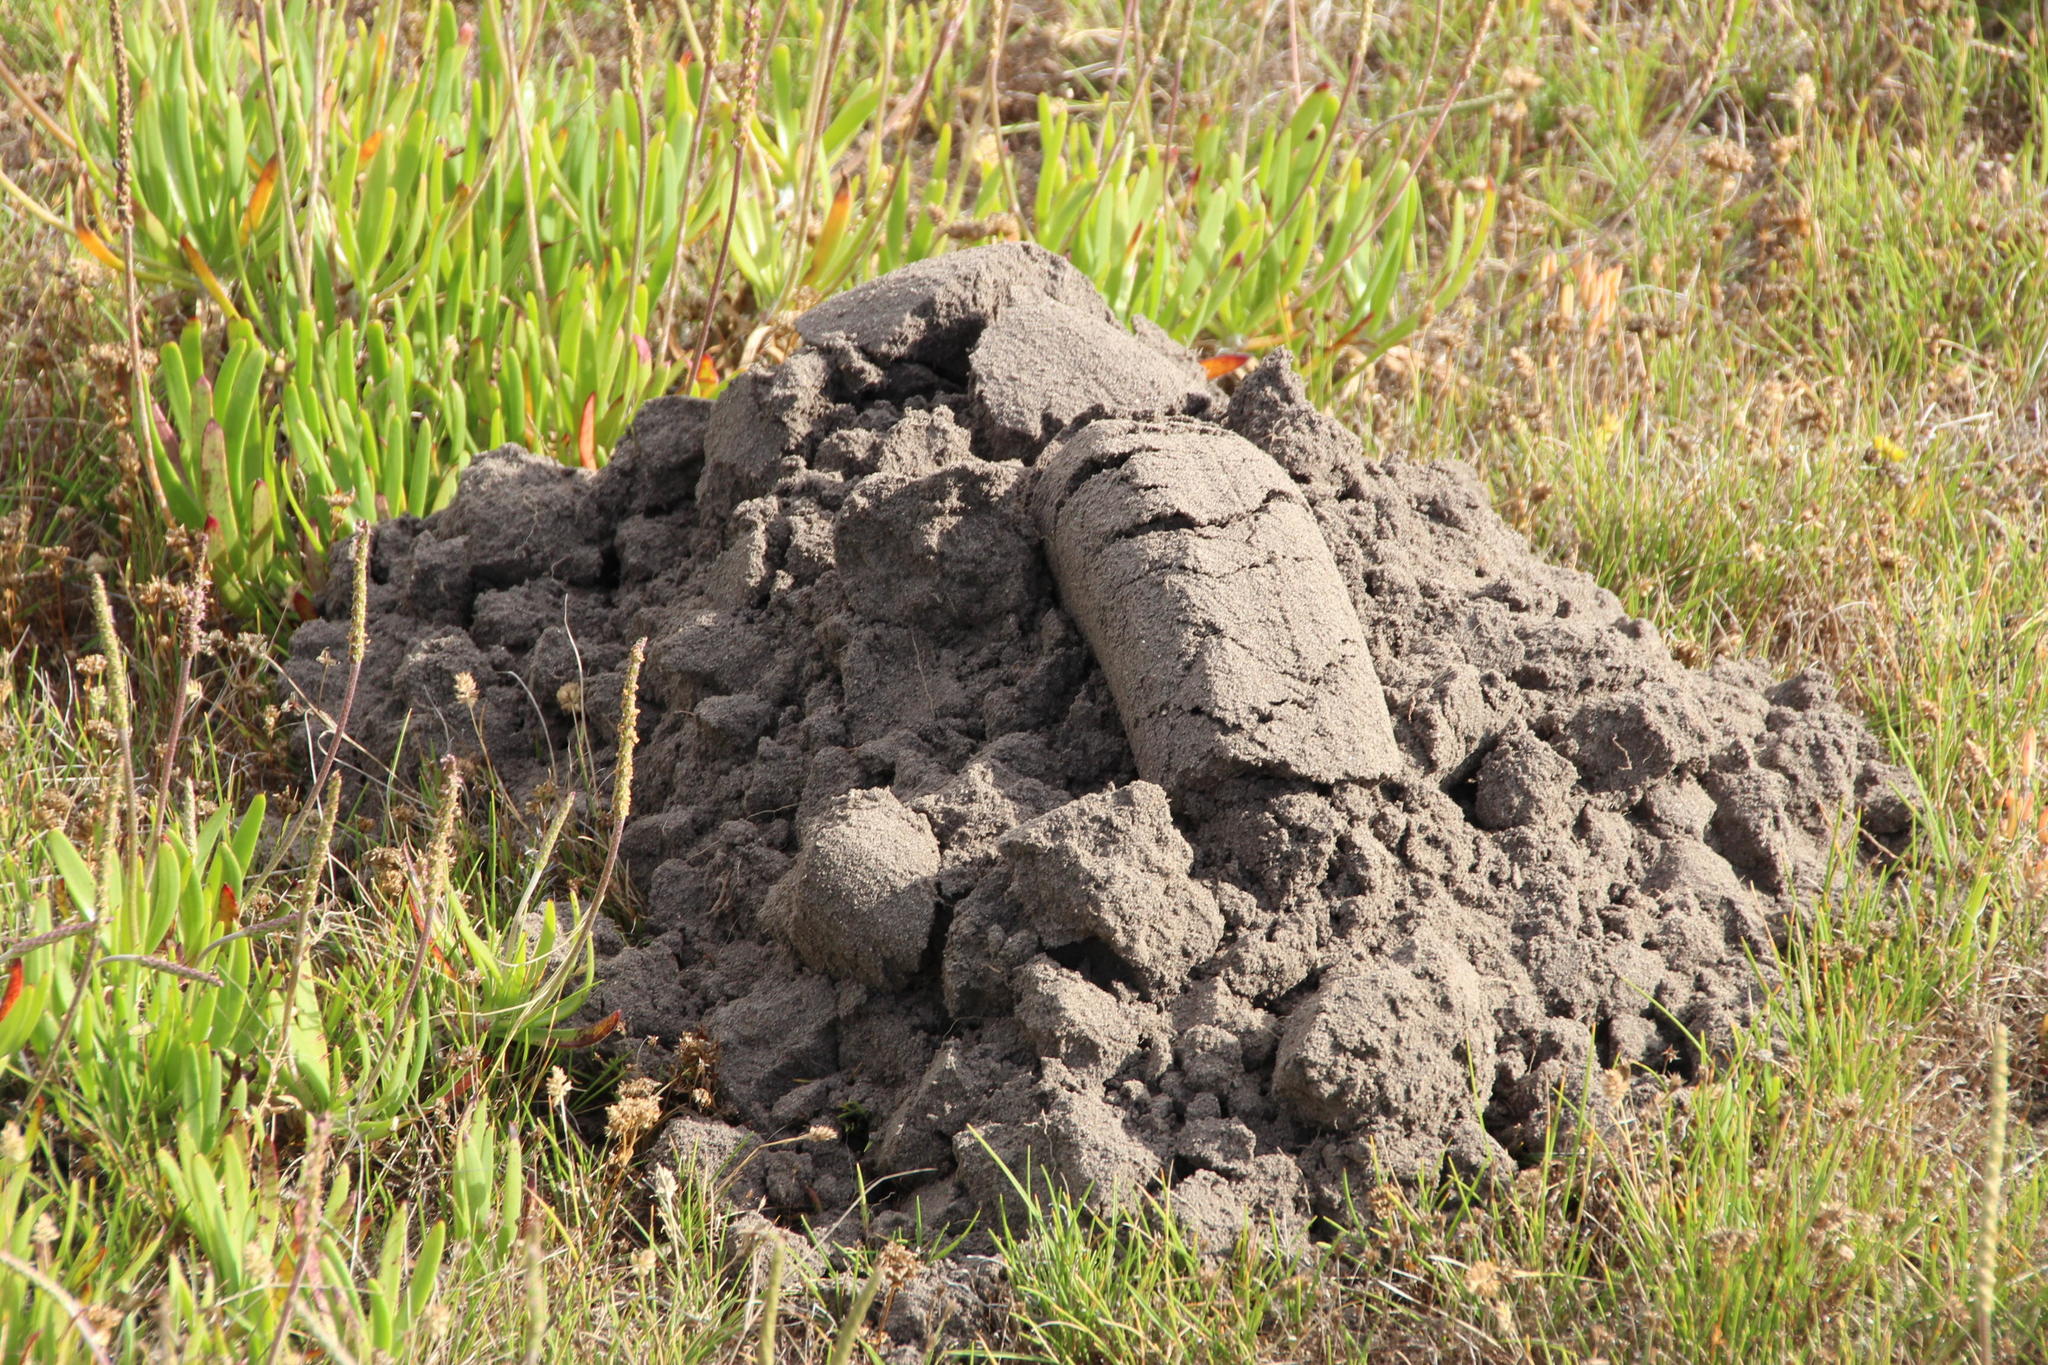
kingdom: Animalia
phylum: Chordata
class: Mammalia
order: Rodentia
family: Bathyergidae
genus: Bathyergus
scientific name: Bathyergus suillus
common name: Cape dune mole rat
